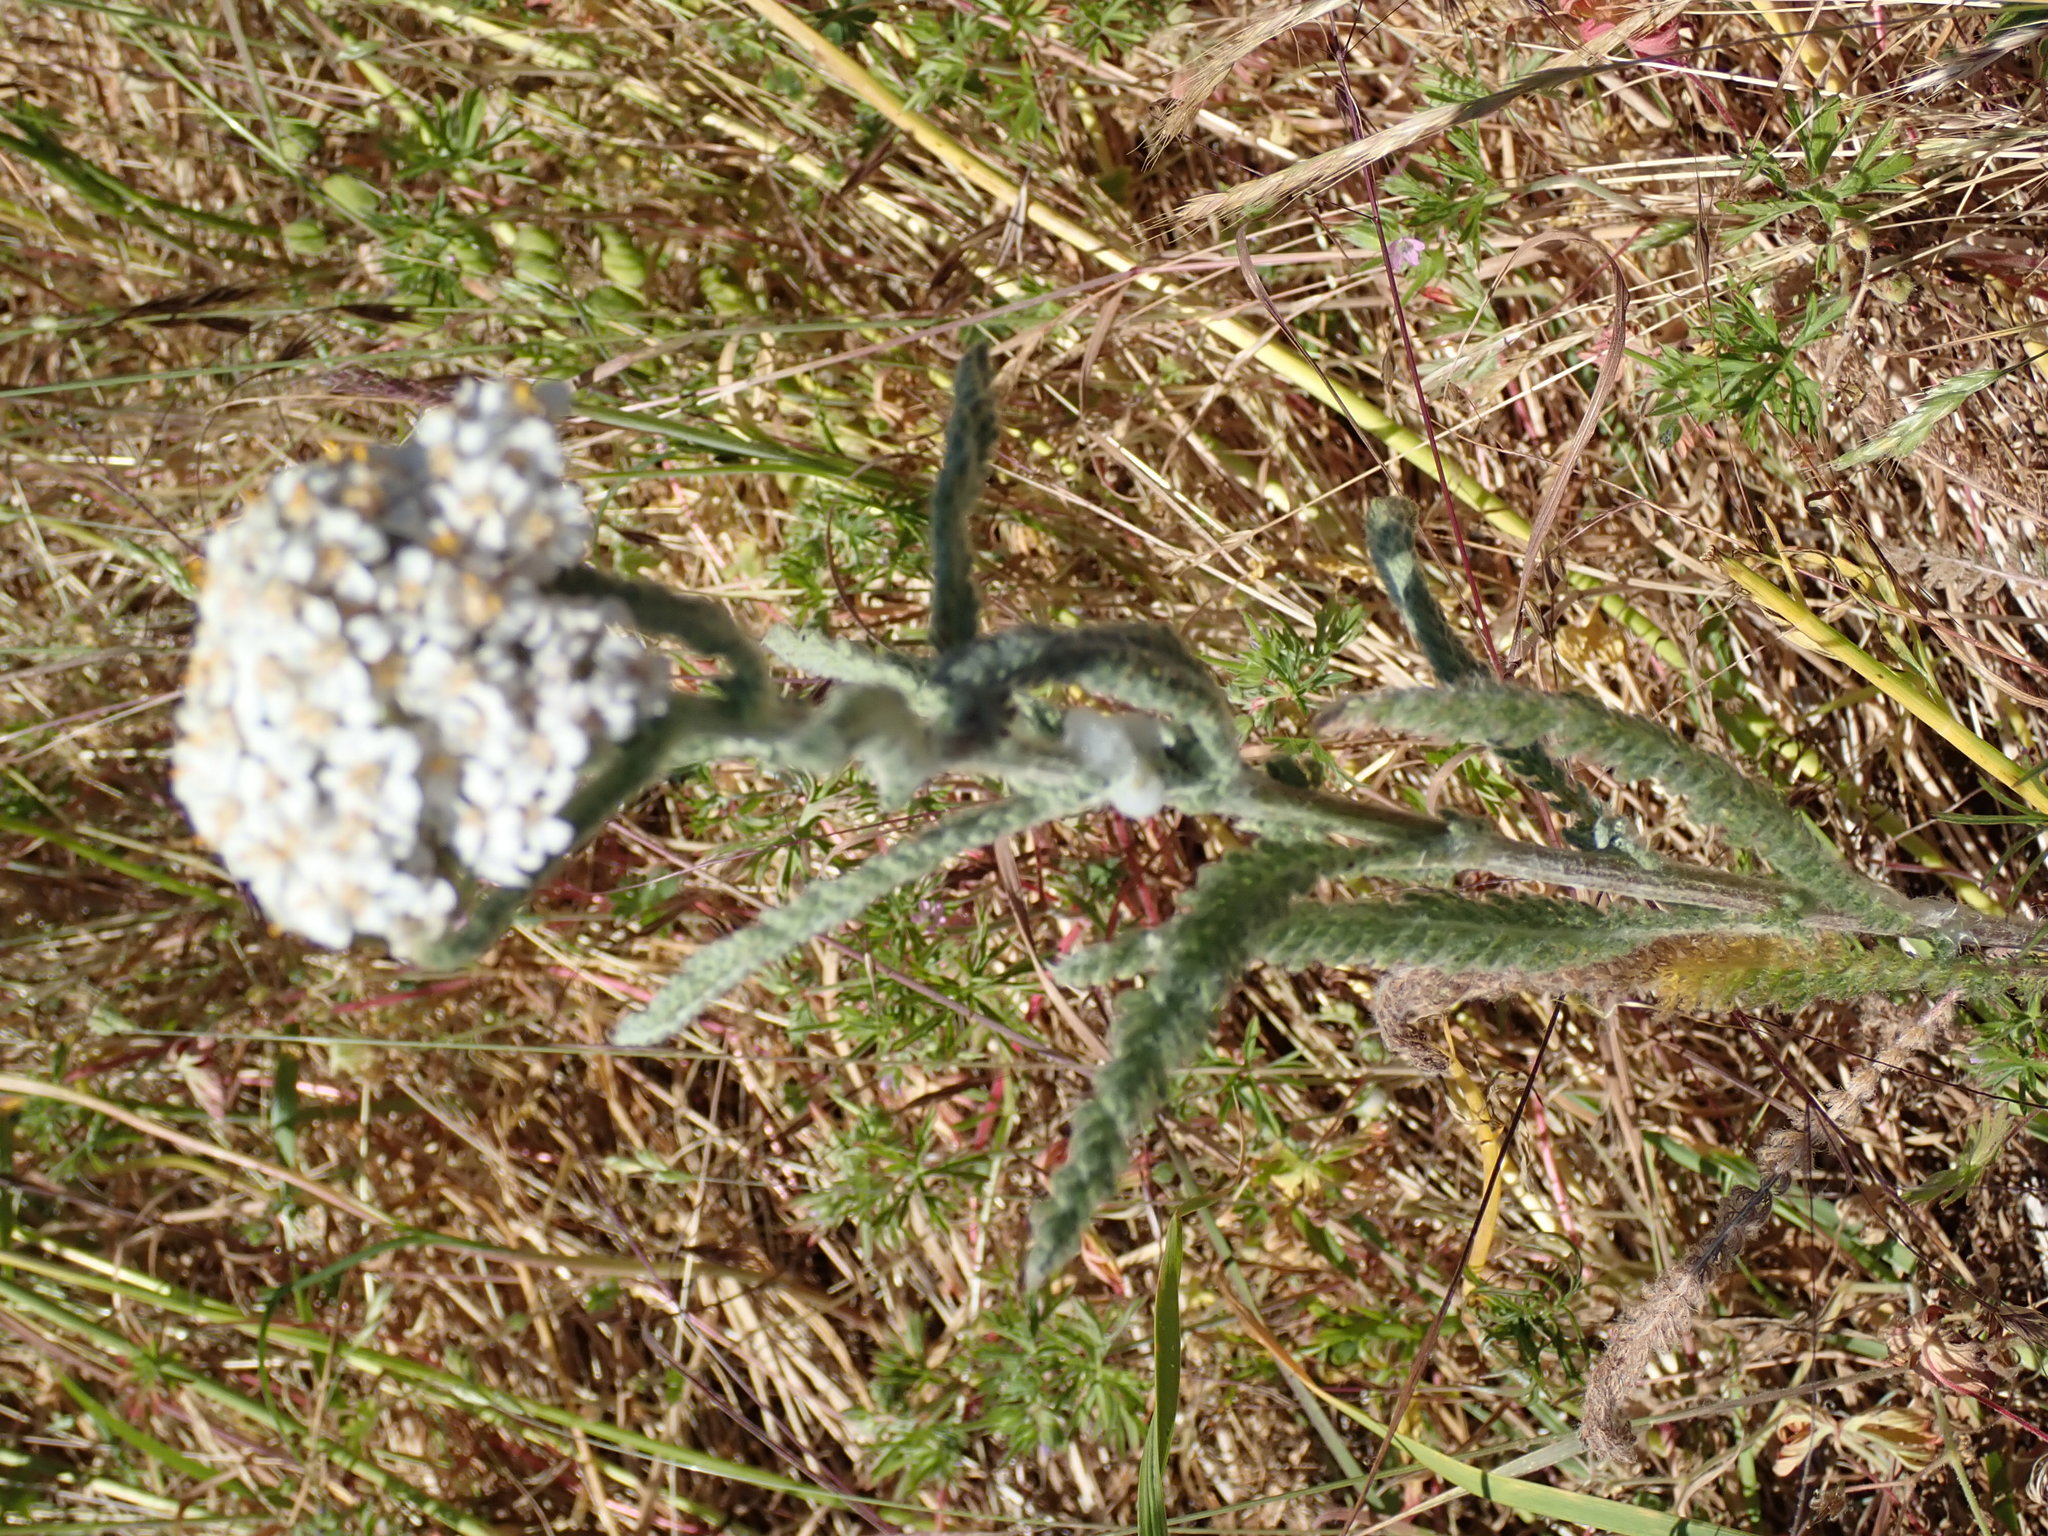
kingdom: Plantae
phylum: Tracheophyta
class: Magnoliopsida
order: Asterales
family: Asteraceae
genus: Achillea
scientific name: Achillea millefolium
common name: Yarrow
